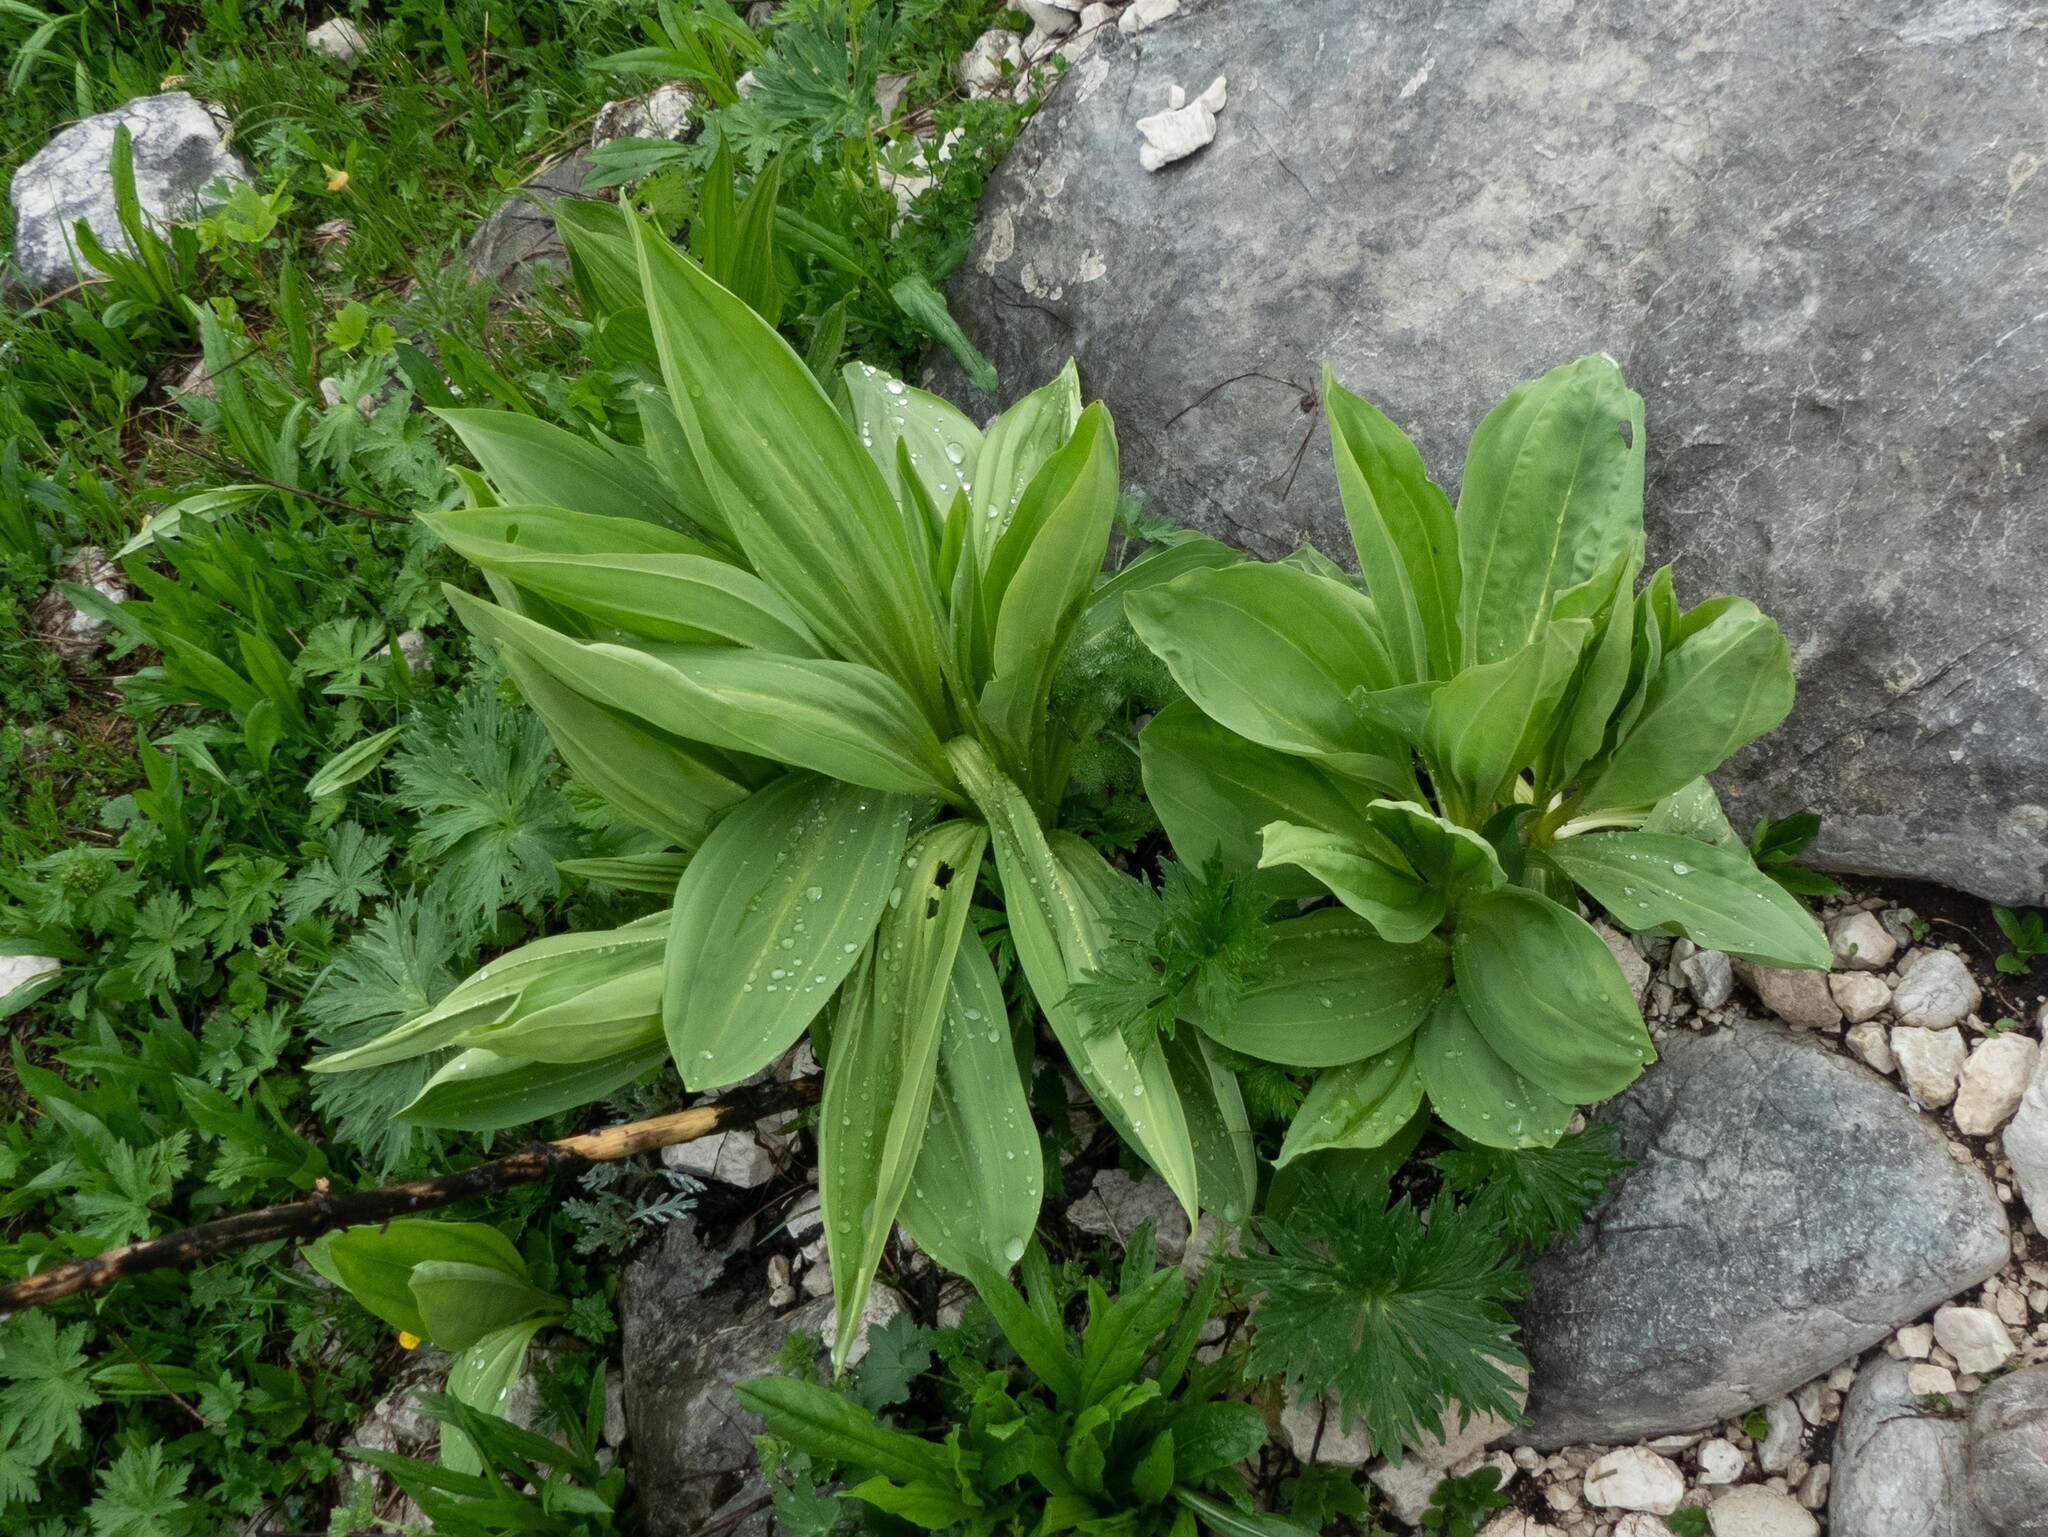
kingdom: Plantae
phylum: Tracheophyta
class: Magnoliopsida
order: Gentianales
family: Gentianaceae
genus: Gentiana
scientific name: Gentiana lutea
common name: Great yellow gentian
